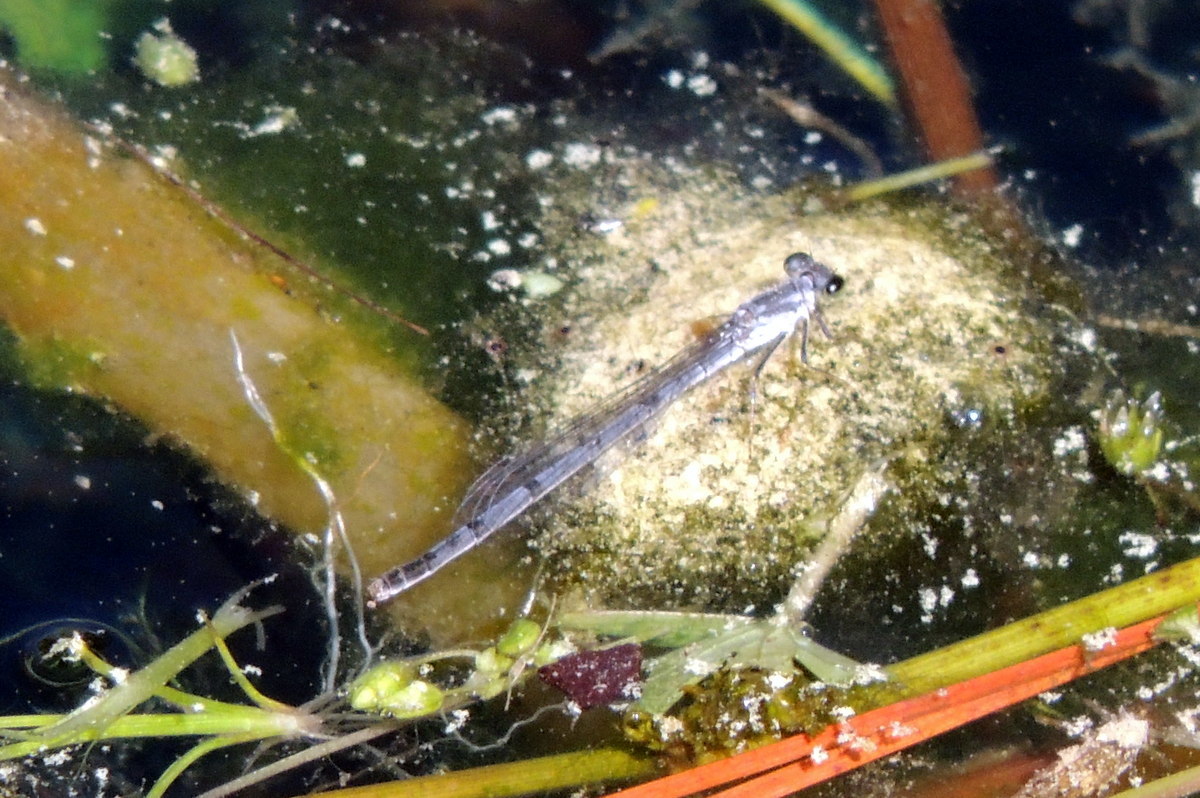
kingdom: Animalia
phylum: Arthropoda
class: Insecta
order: Odonata
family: Coenagrionidae
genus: Ischnura
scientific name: Ischnura posita
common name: Fragile forktail
